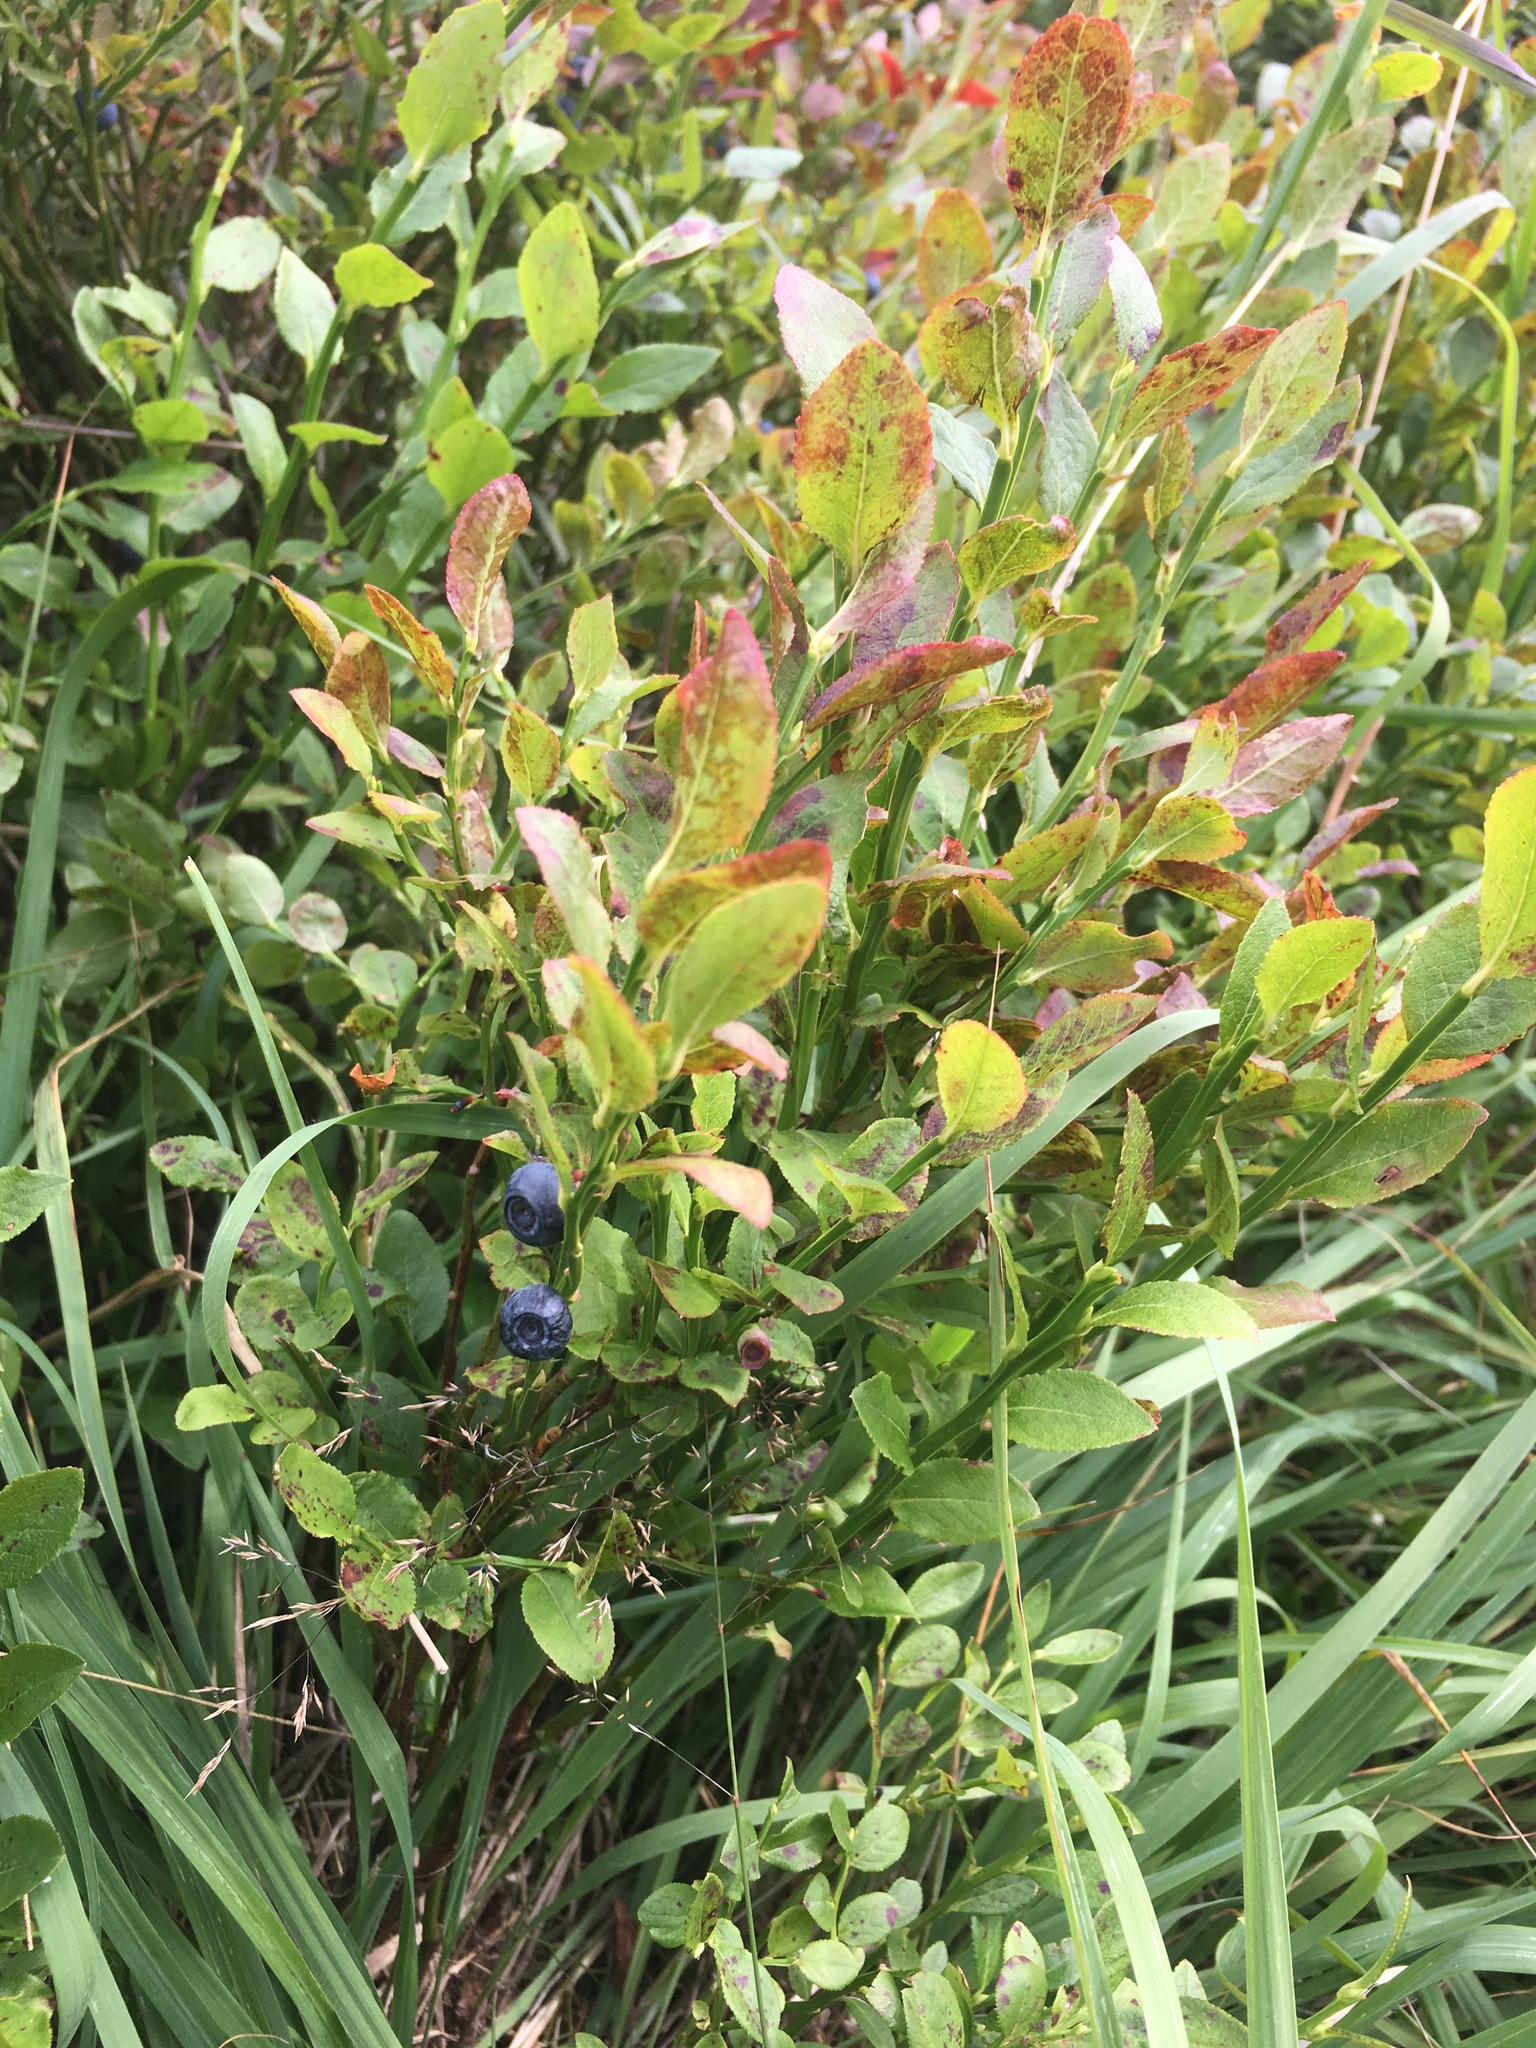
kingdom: Plantae
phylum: Tracheophyta
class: Magnoliopsida
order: Ericales
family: Ericaceae
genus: Vaccinium
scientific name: Vaccinium myrtillus
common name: Bilberry
